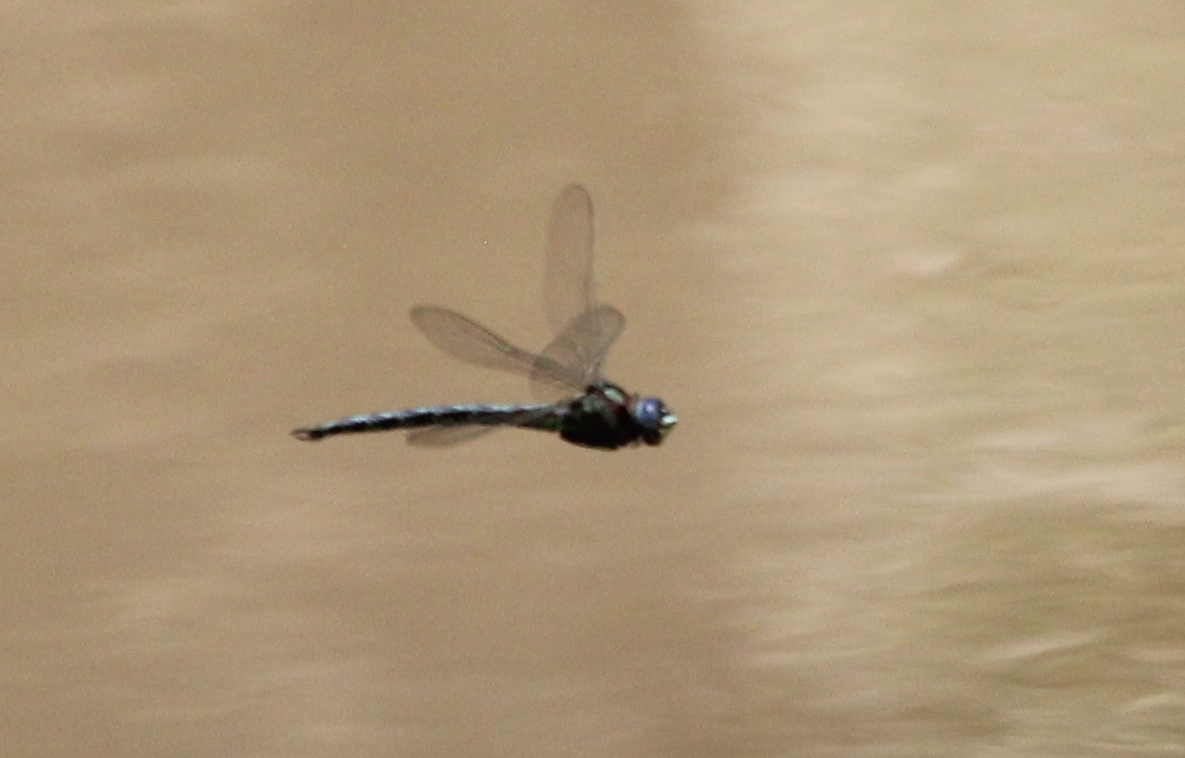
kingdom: Animalia
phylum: Arthropoda
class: Insecta
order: Odonata
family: Aeshnidae
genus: Nasiaeschna
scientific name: Nasiaeschna pentacantha
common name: Cyrano darner
